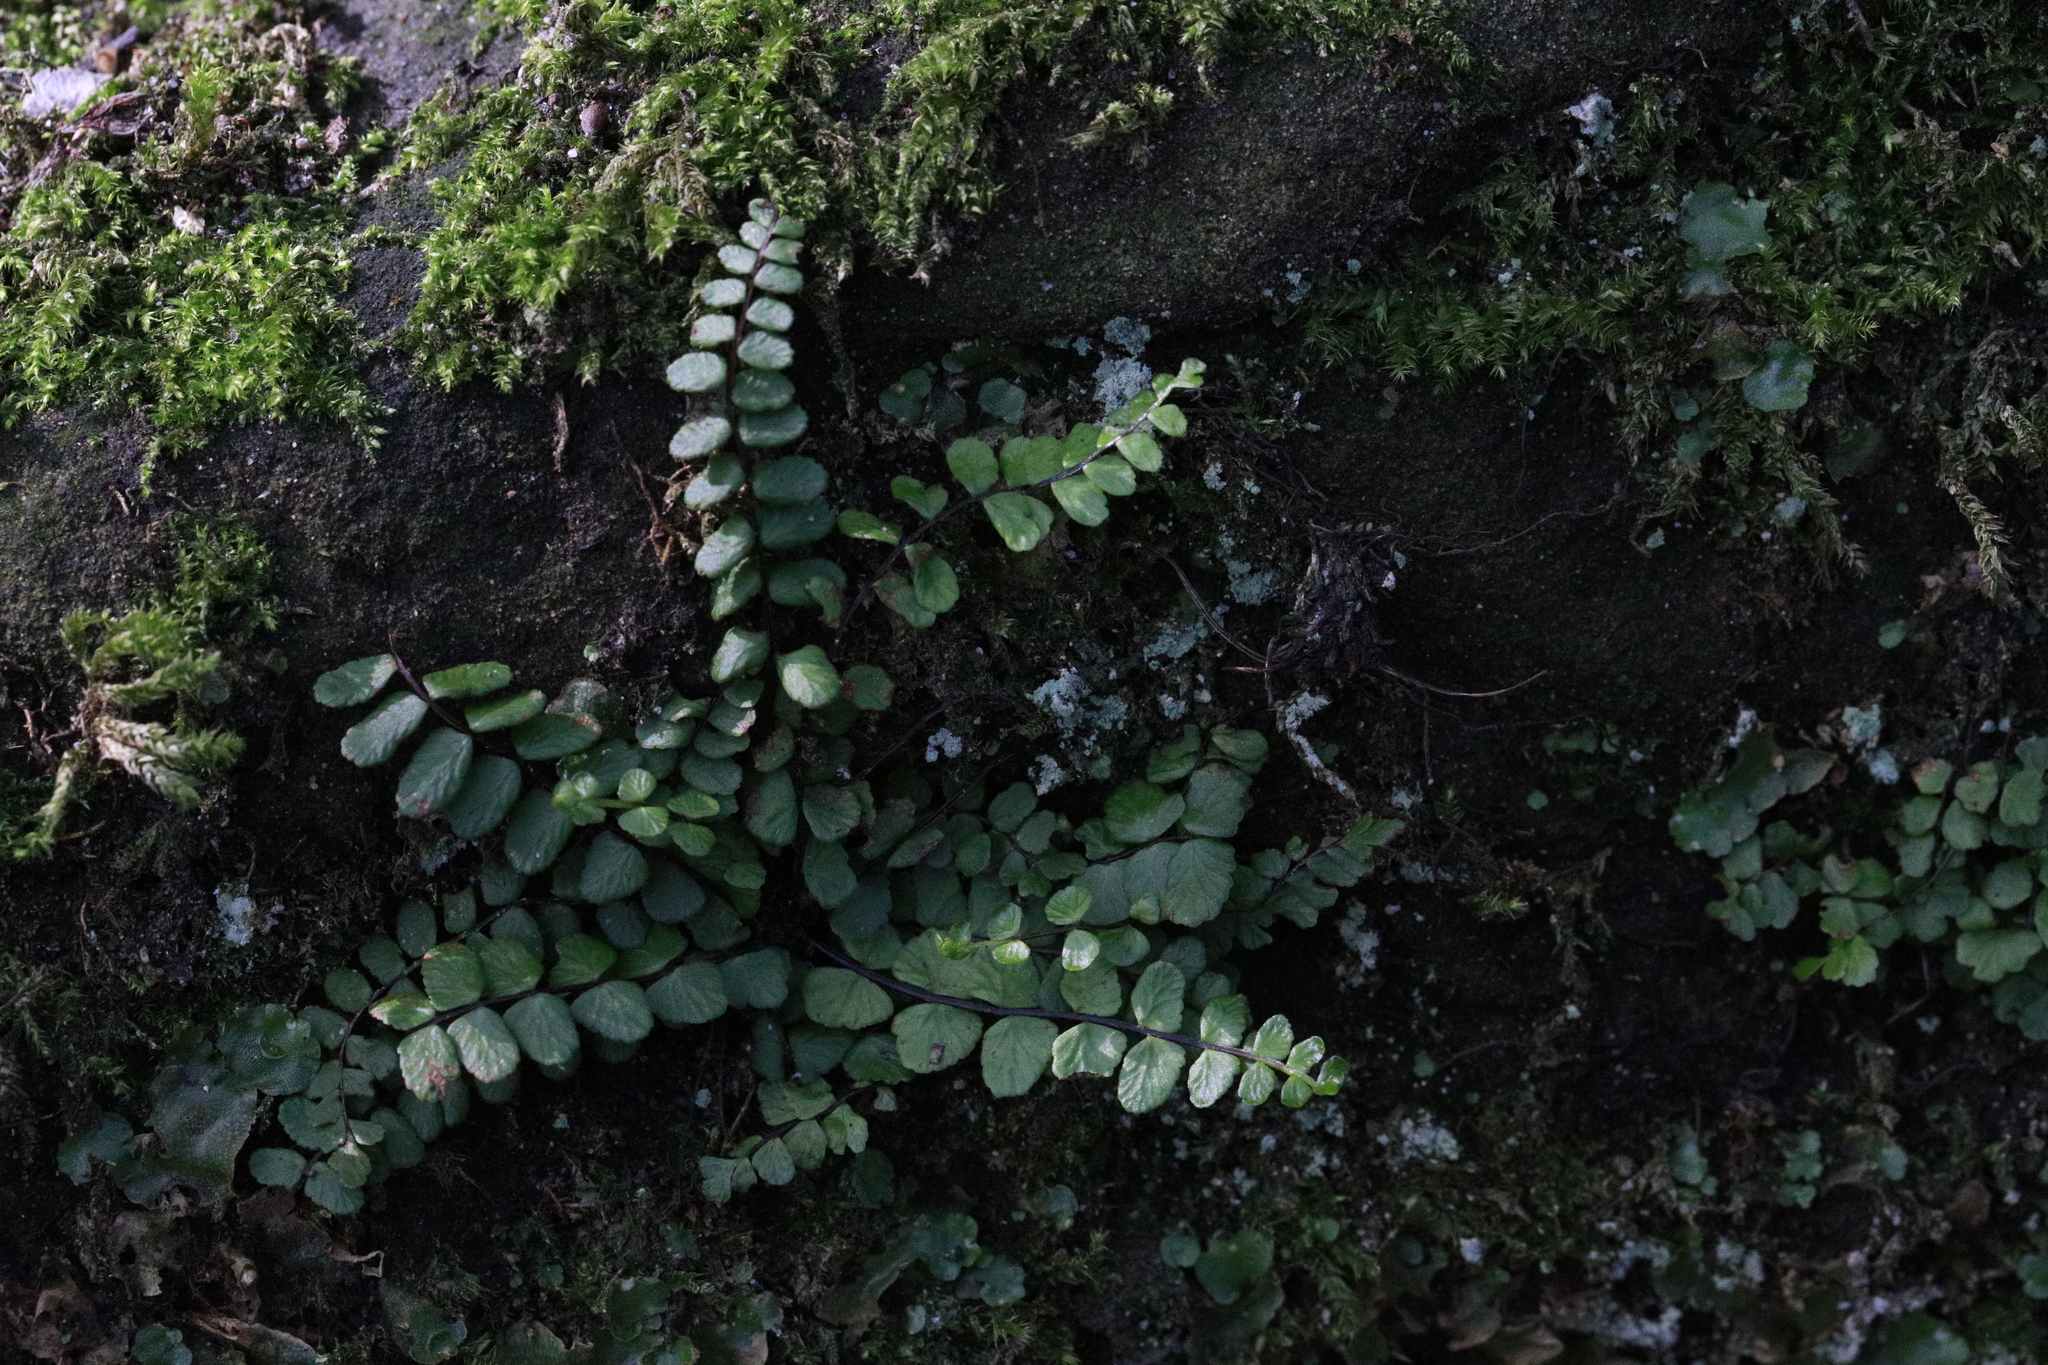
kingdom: Plantae
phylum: Tracheophyta
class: Polypodiopsida
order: Polypodiales
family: Aspleniaceae
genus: Asplenium
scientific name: Asplenium trichomanes
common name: Maidenhair spleenwort
